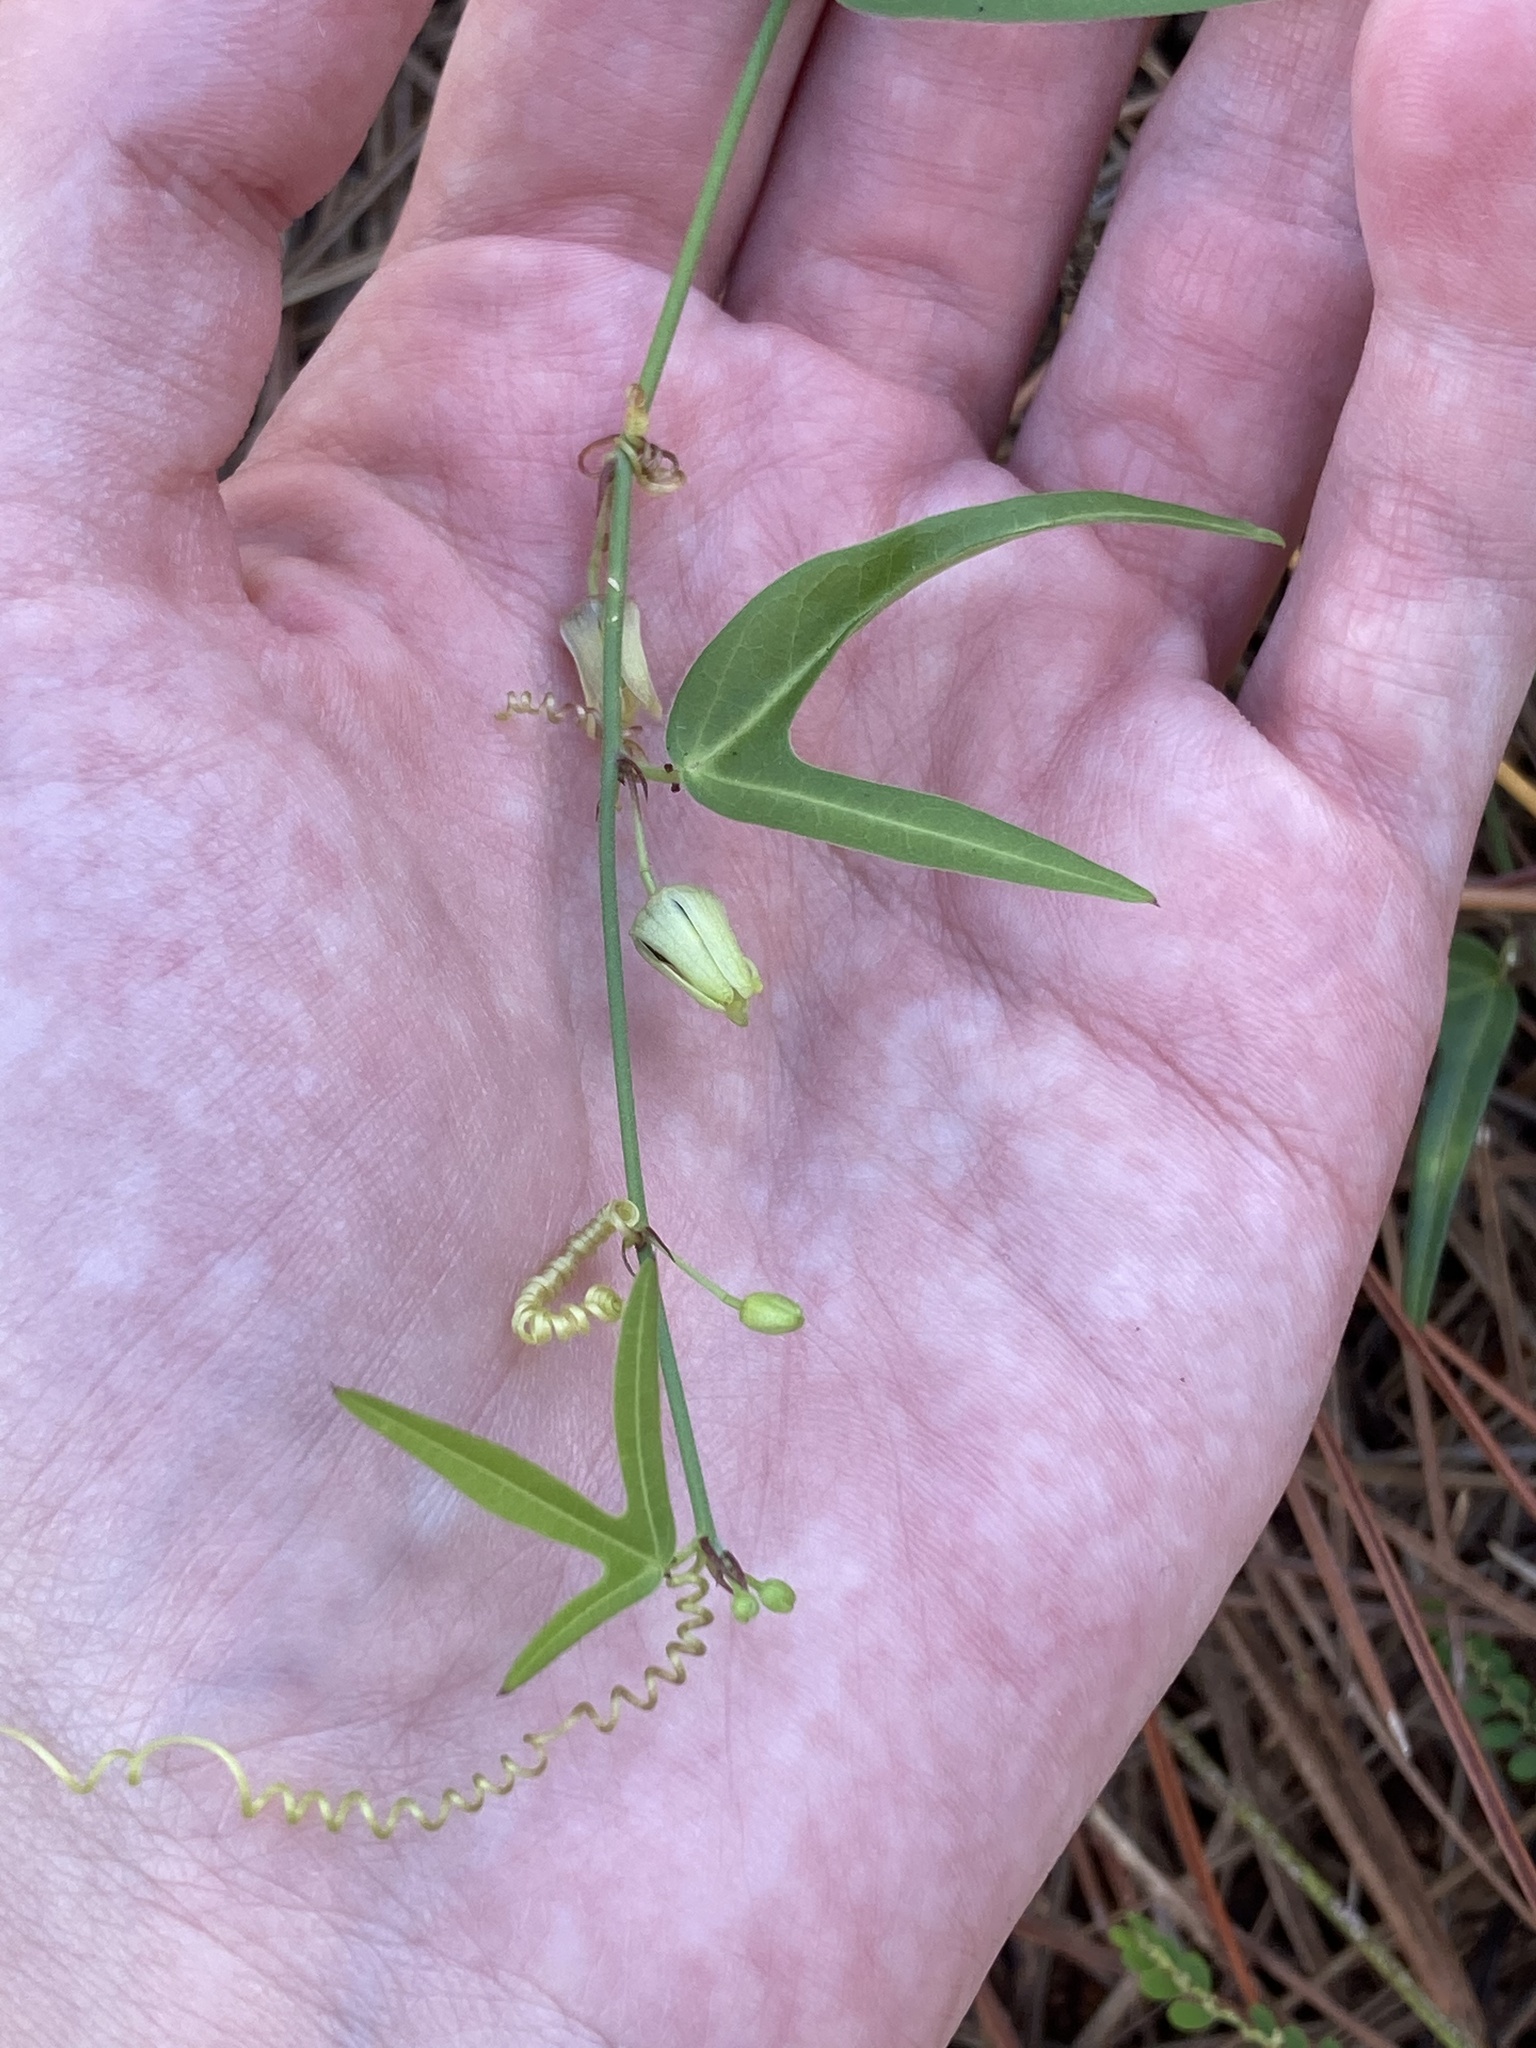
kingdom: Plantae
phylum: Tracheophyta
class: Magnoliopsida
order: Malpighiales
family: Passifloraceae
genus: Passiflora
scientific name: Passiflora pallida
